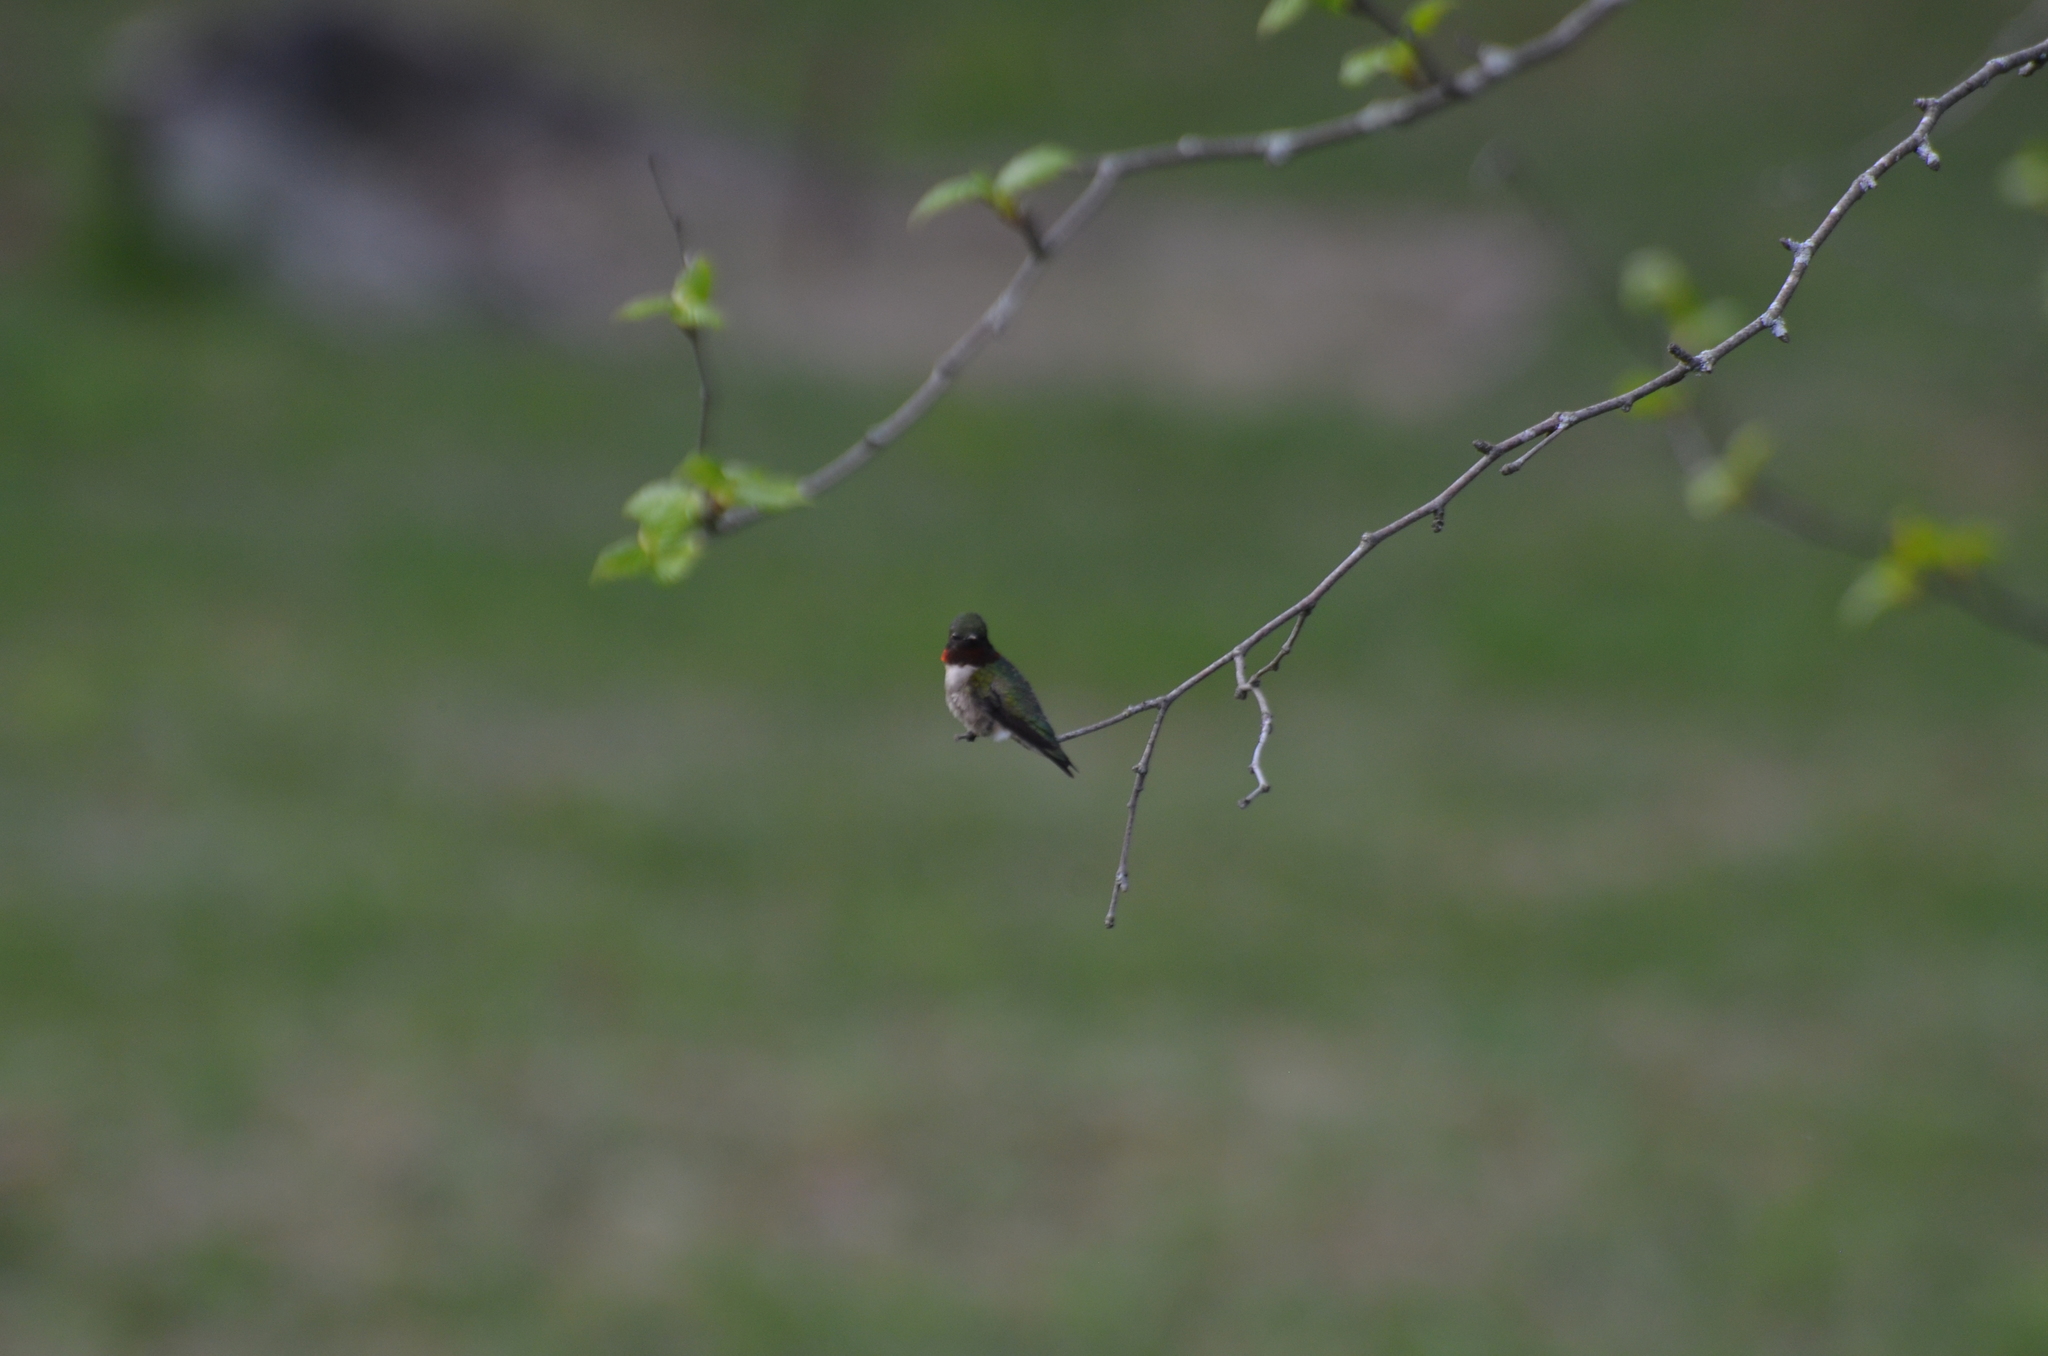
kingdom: Animalia
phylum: Chordata
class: Aves
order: Apodiformes
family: Trochilidae
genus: Archilochus
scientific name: Archilochus colubris
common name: Ruby-throated hummingbird
